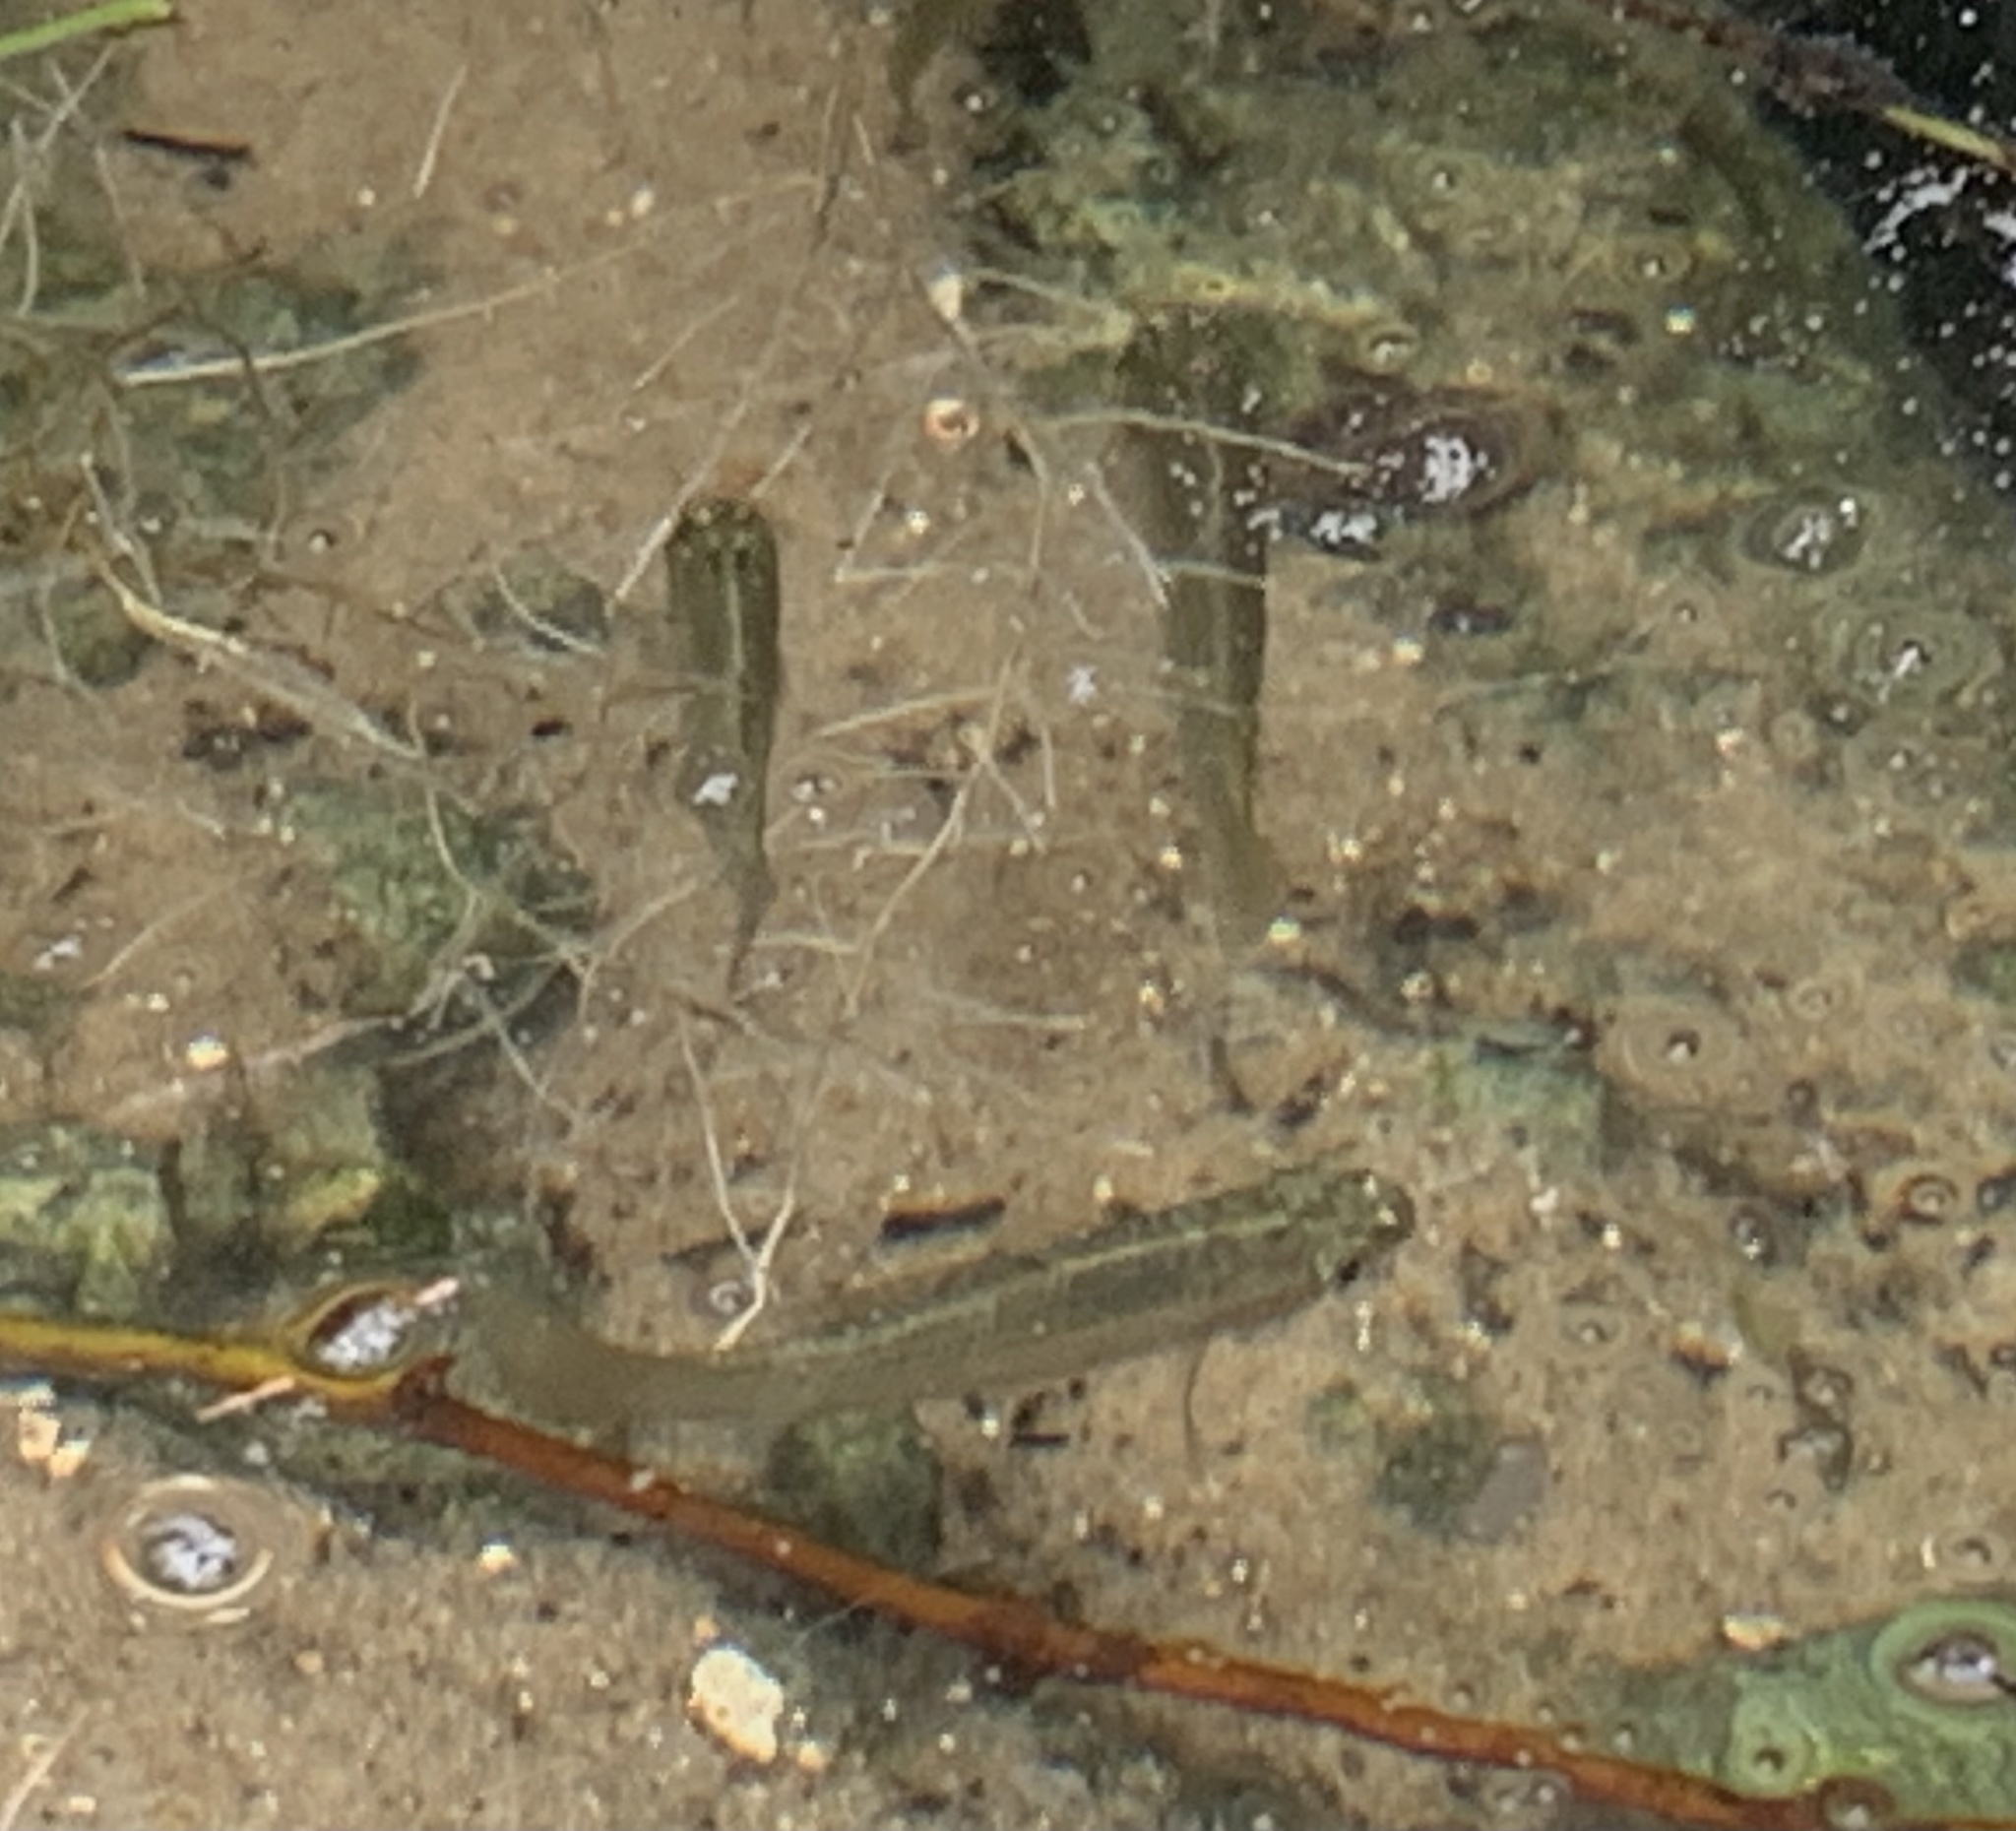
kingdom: Animalia
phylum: Chordata
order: Cyprinodontiformes
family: Poeciliidae
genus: Poecilia
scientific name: Poecilia latipinna
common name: Sailfin molly
